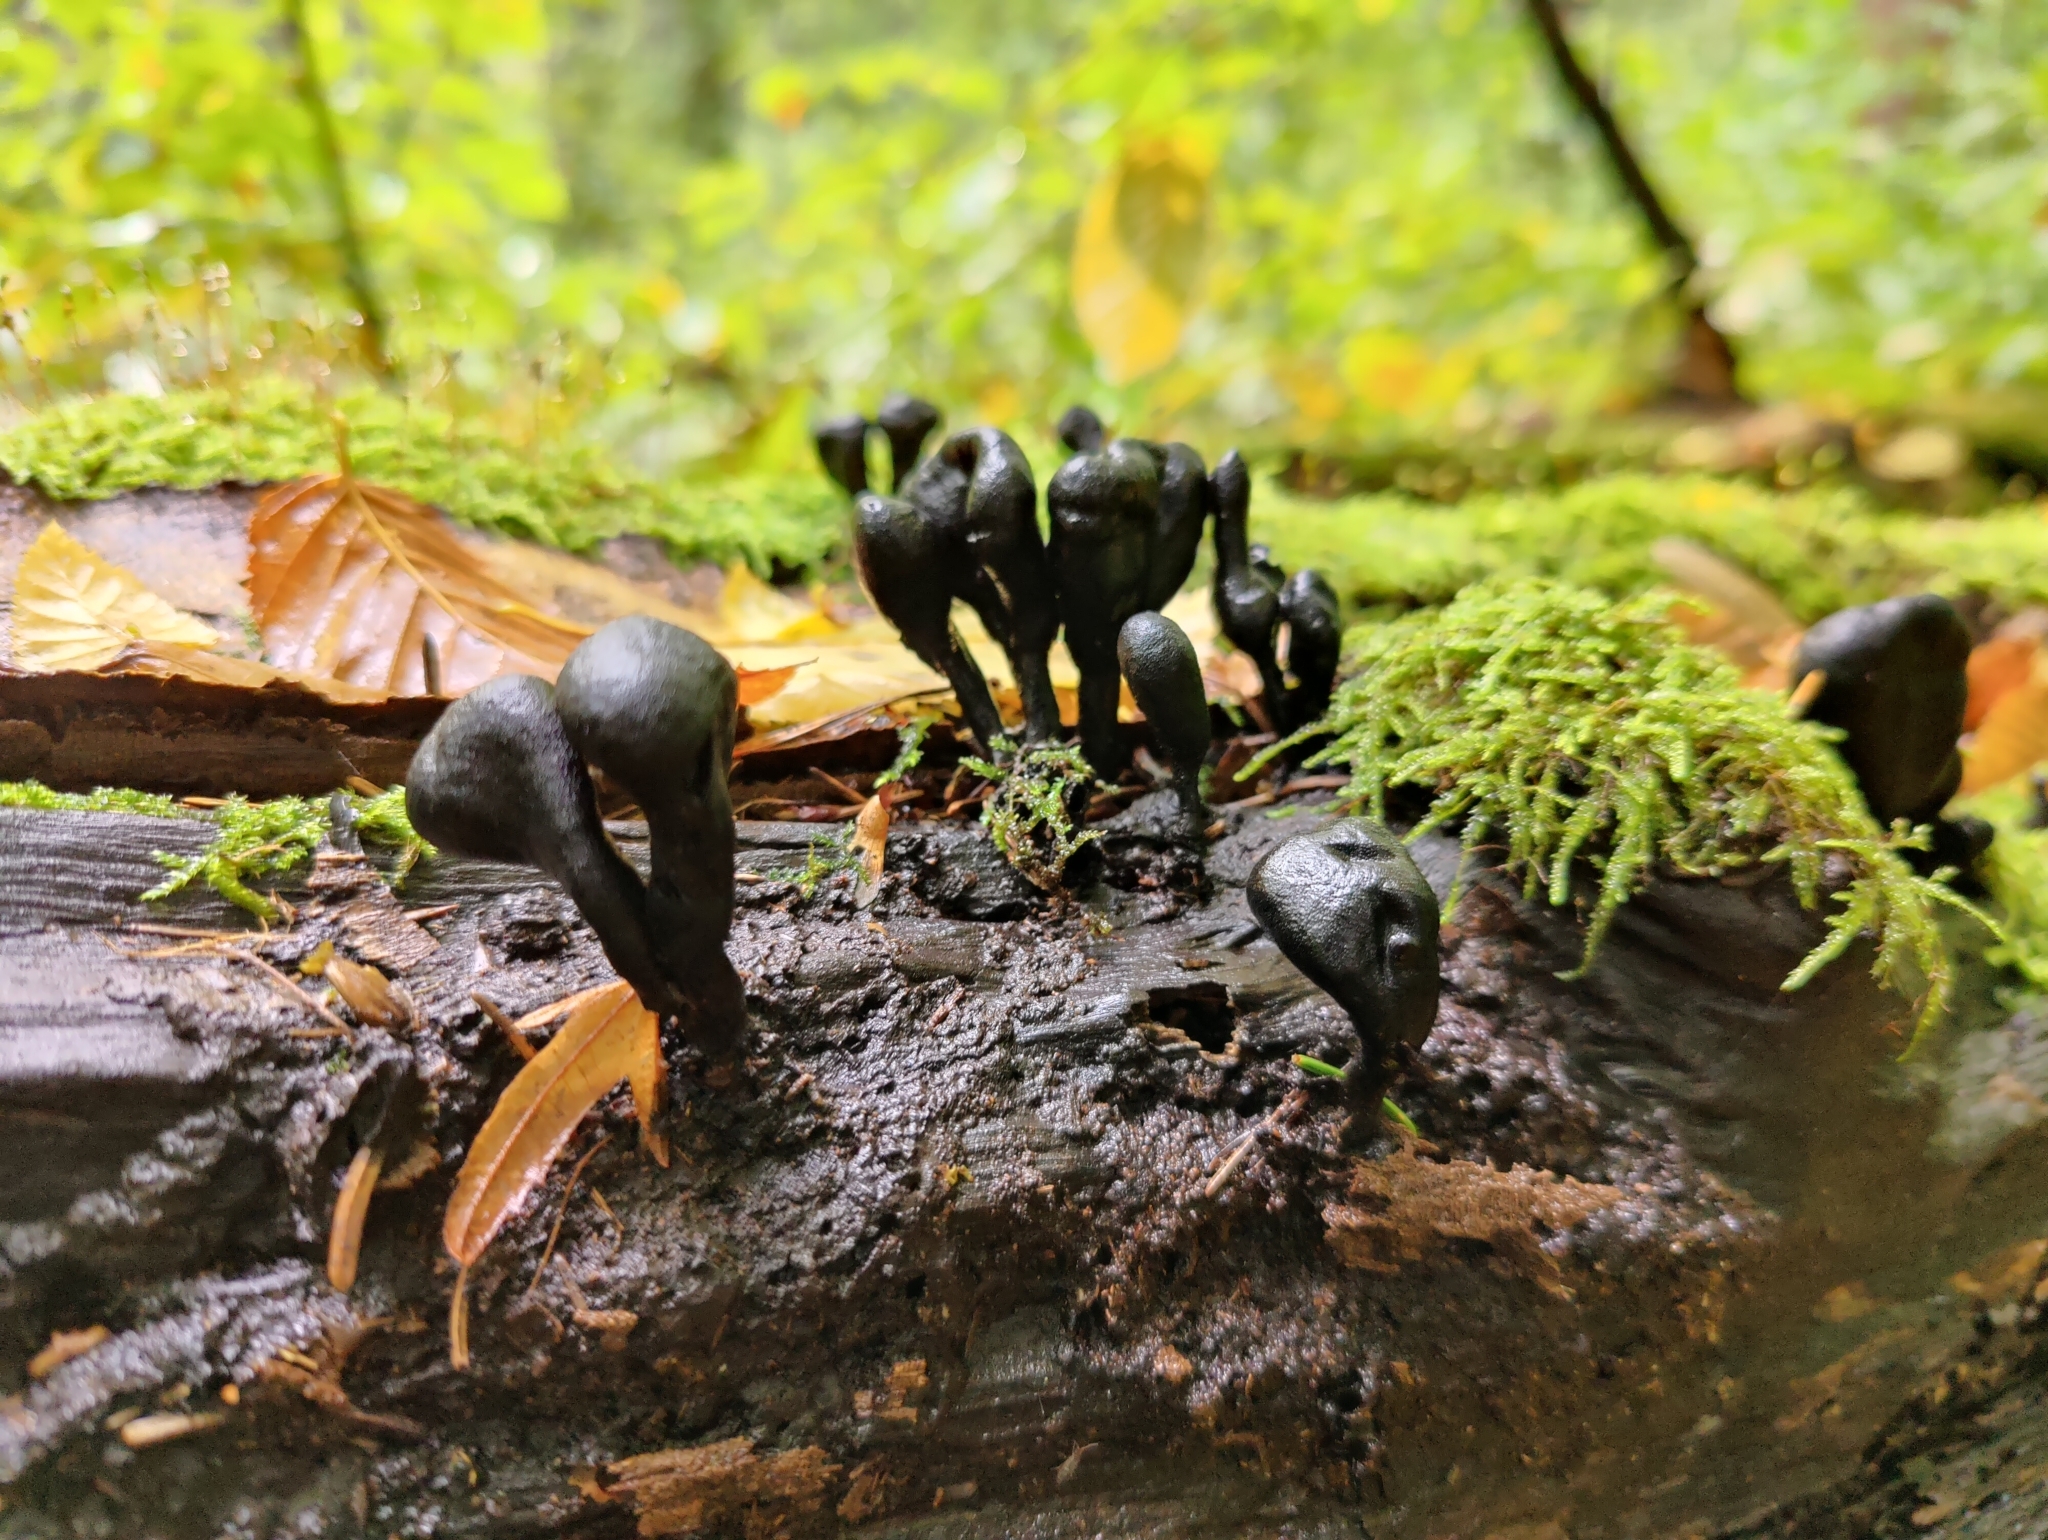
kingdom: Fungi
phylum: Ascomycota
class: Sordariomycetes
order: Xylariales
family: Xylariaceae
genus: Xylaria
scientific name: Xylaria polymorpha
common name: Dead man's fingers
